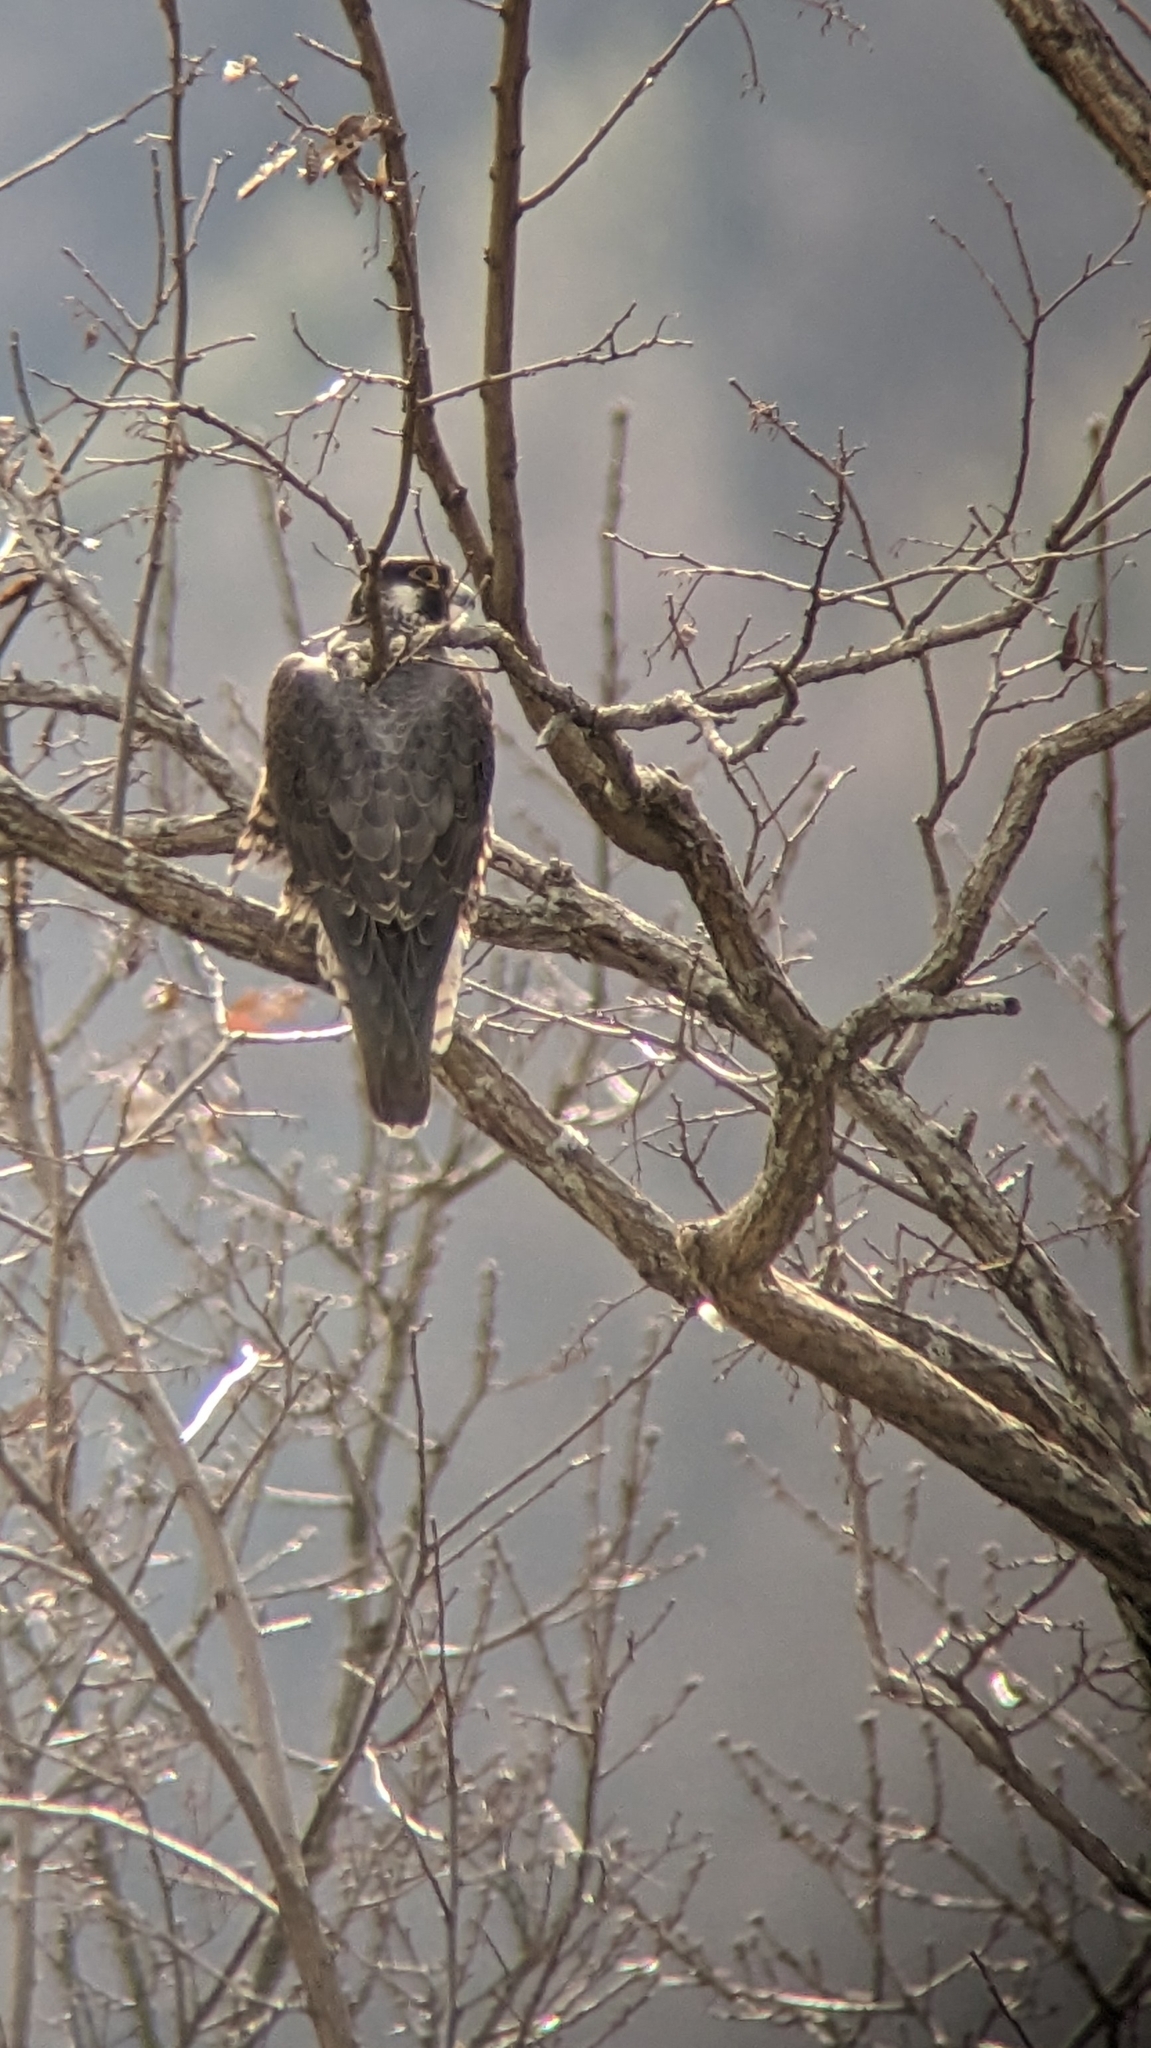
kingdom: Animalia
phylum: Chordata
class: Aves
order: Falconiformes
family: Falconidae
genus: Falco
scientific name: Falco peregrinus
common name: Peregrine falcon
